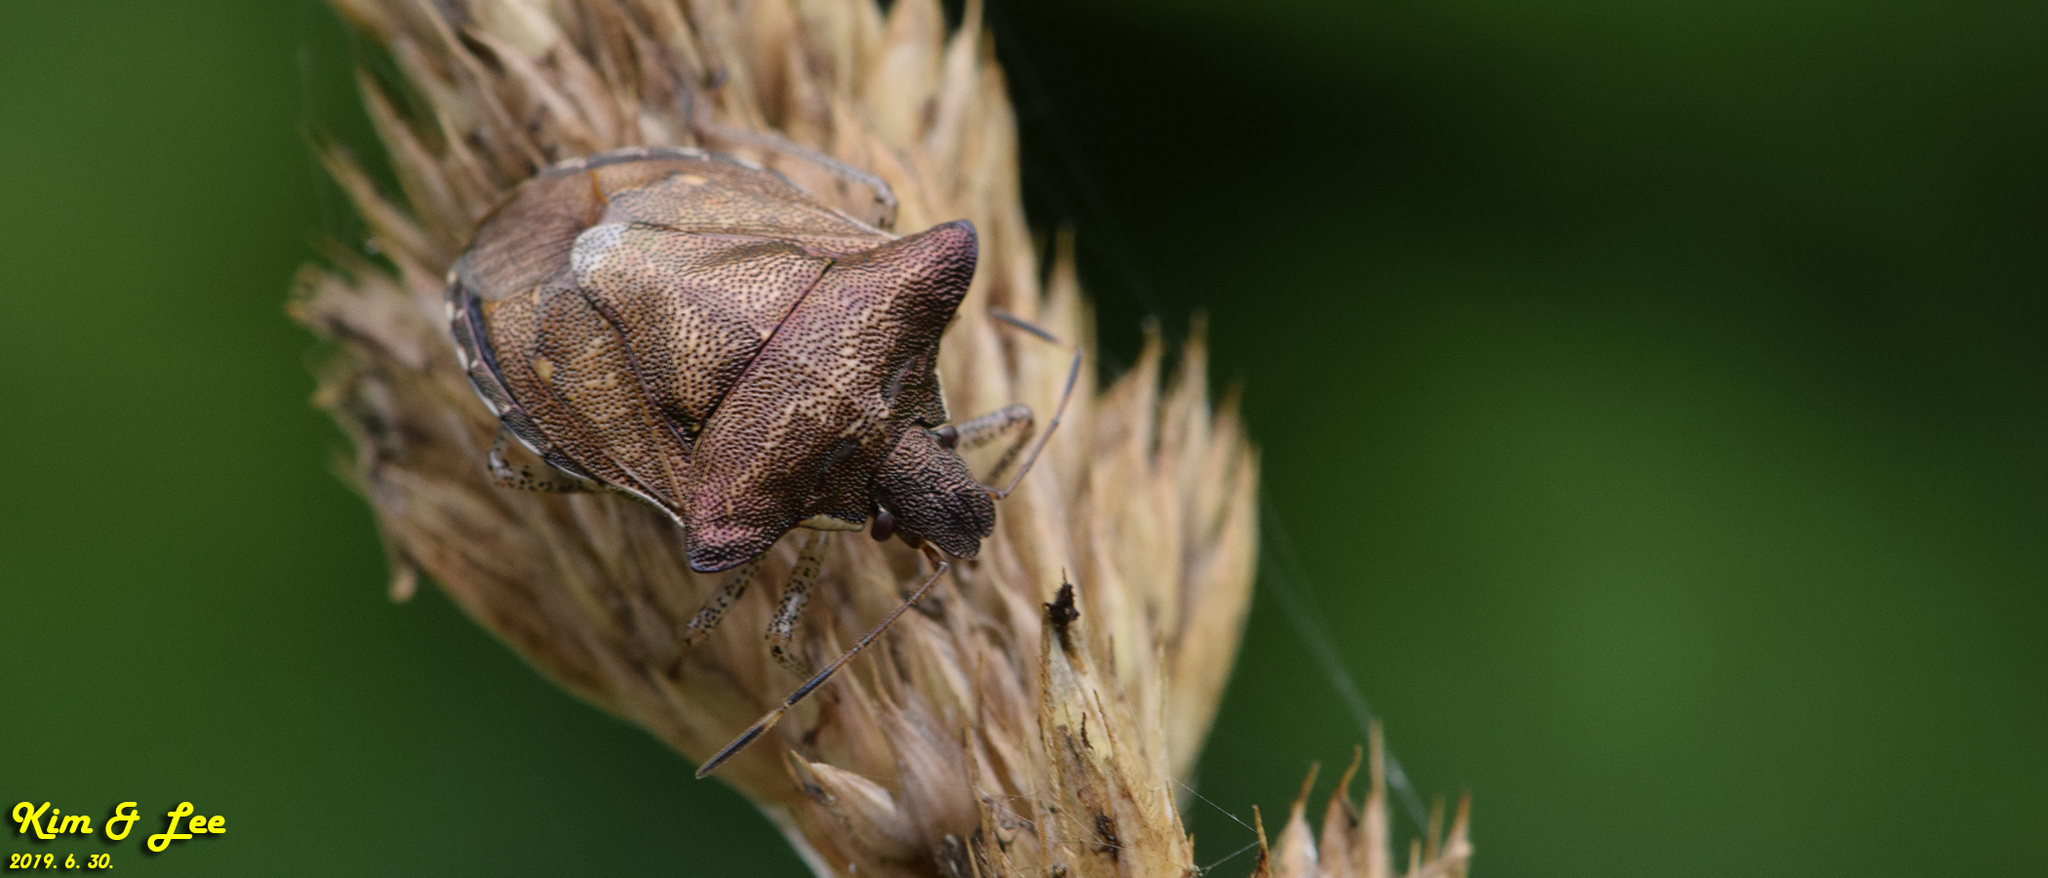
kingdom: Animalia
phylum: Arthropoda
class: Insecta
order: Hemiptera
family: Pentatomidae
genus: Carbula
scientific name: Carbula putoni
